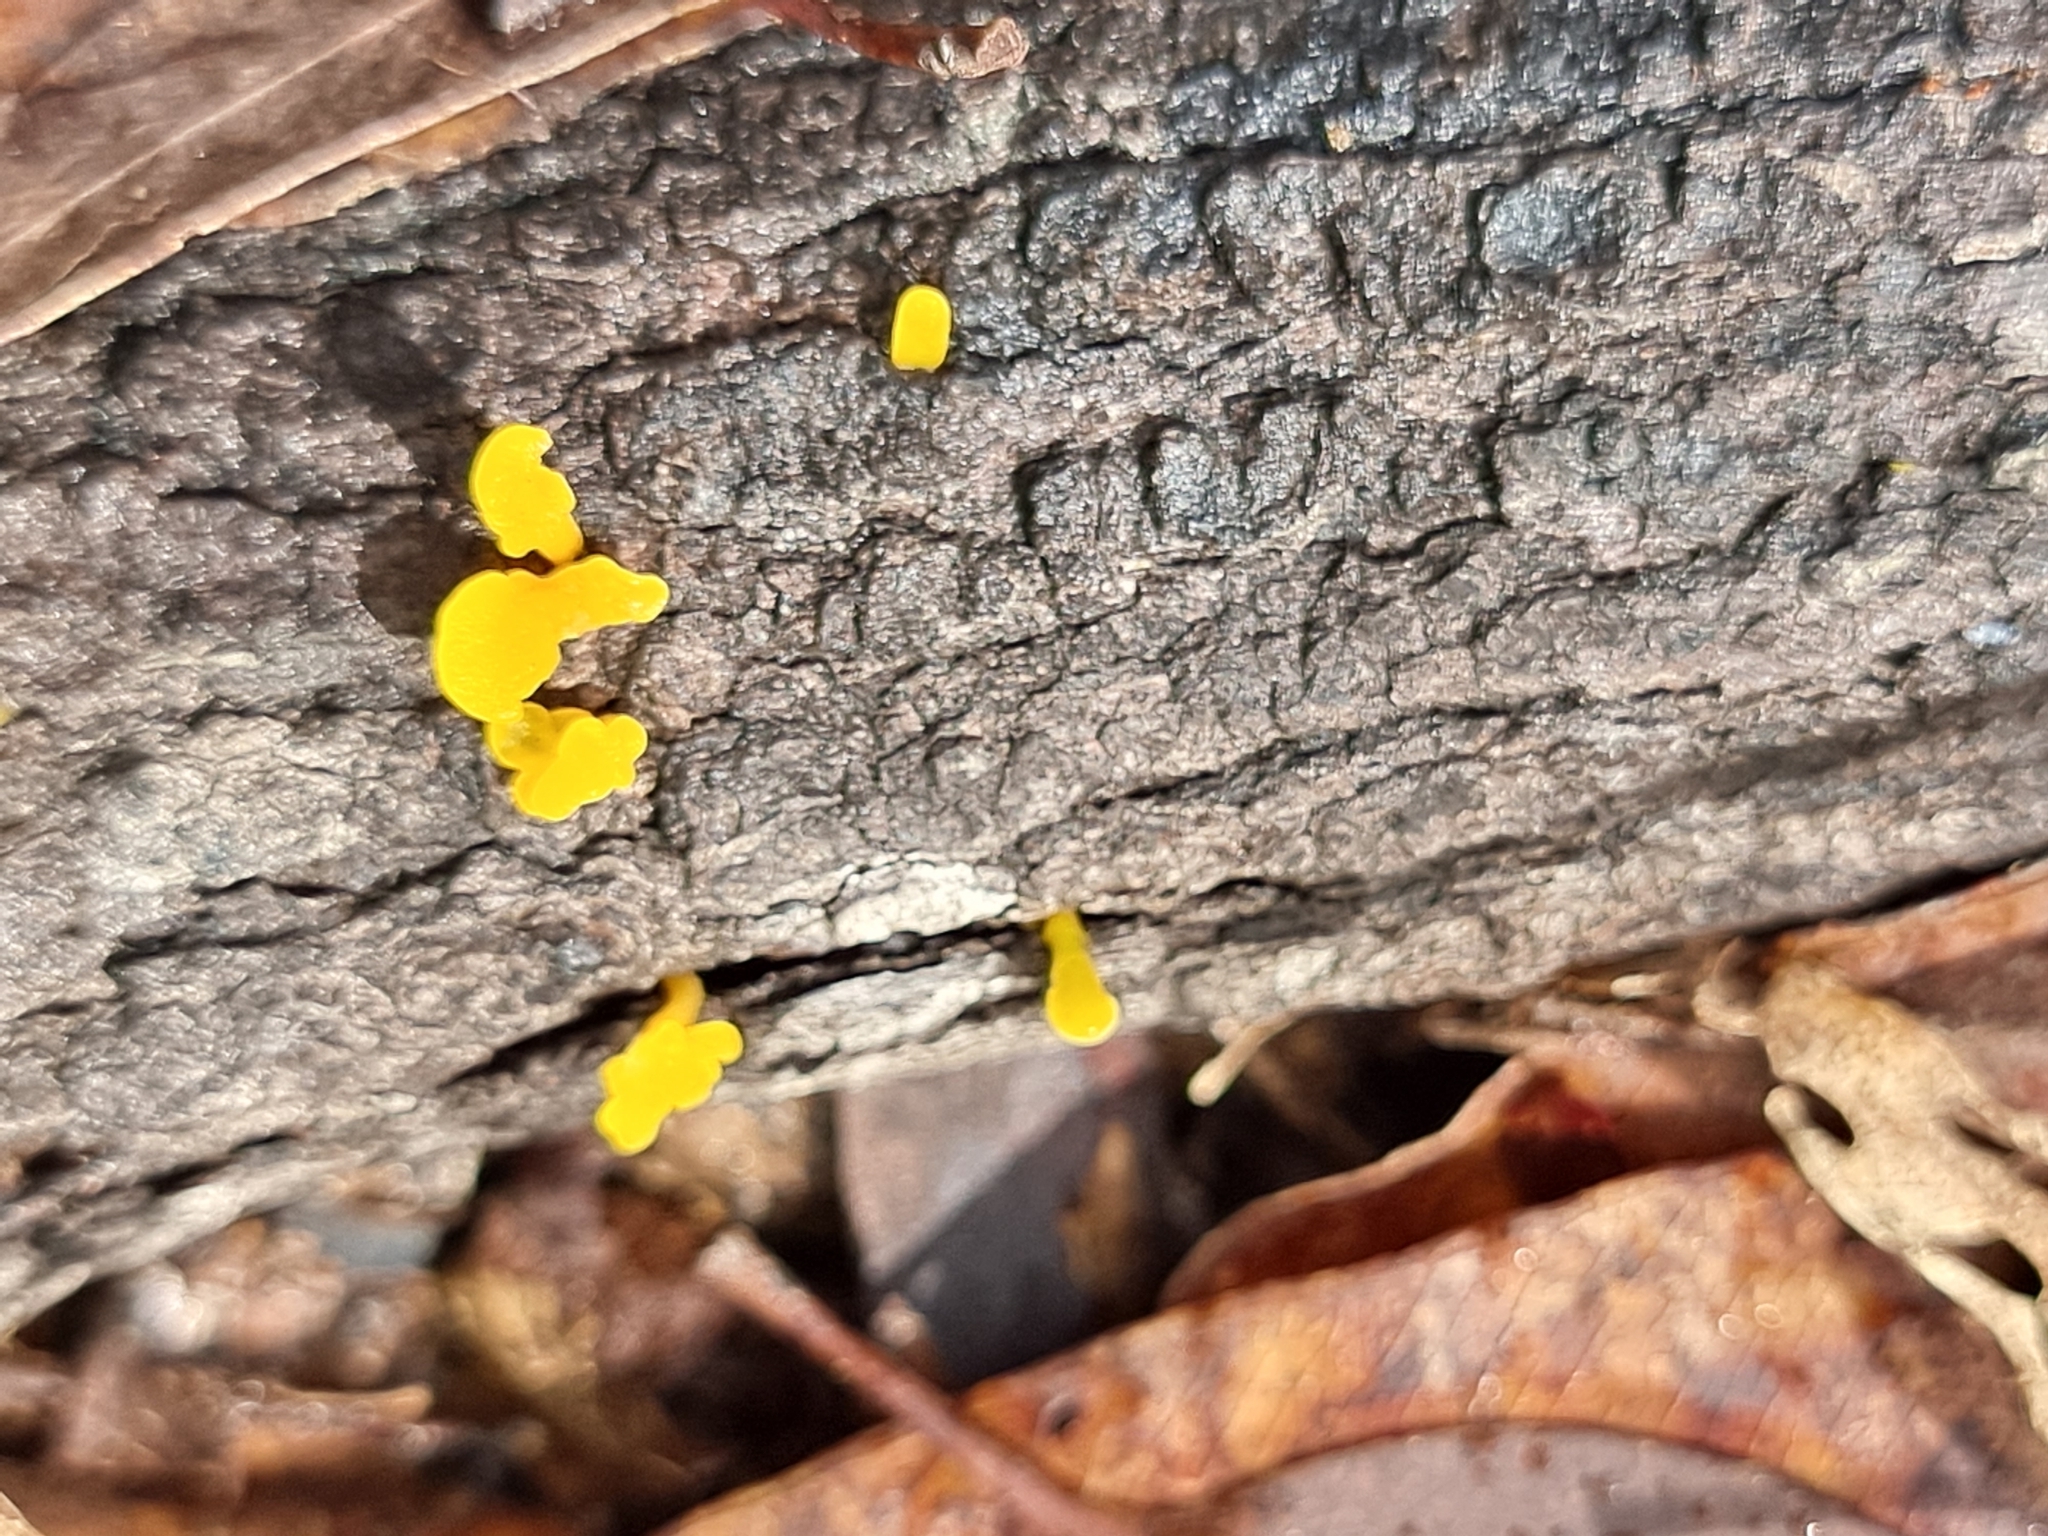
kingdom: Fungi
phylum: Basidiomycota
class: Dacrymycetes
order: Dacrymycetales
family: Dacrymycetaceae
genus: Dacrymyces
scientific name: Dacrymyces spathularius
